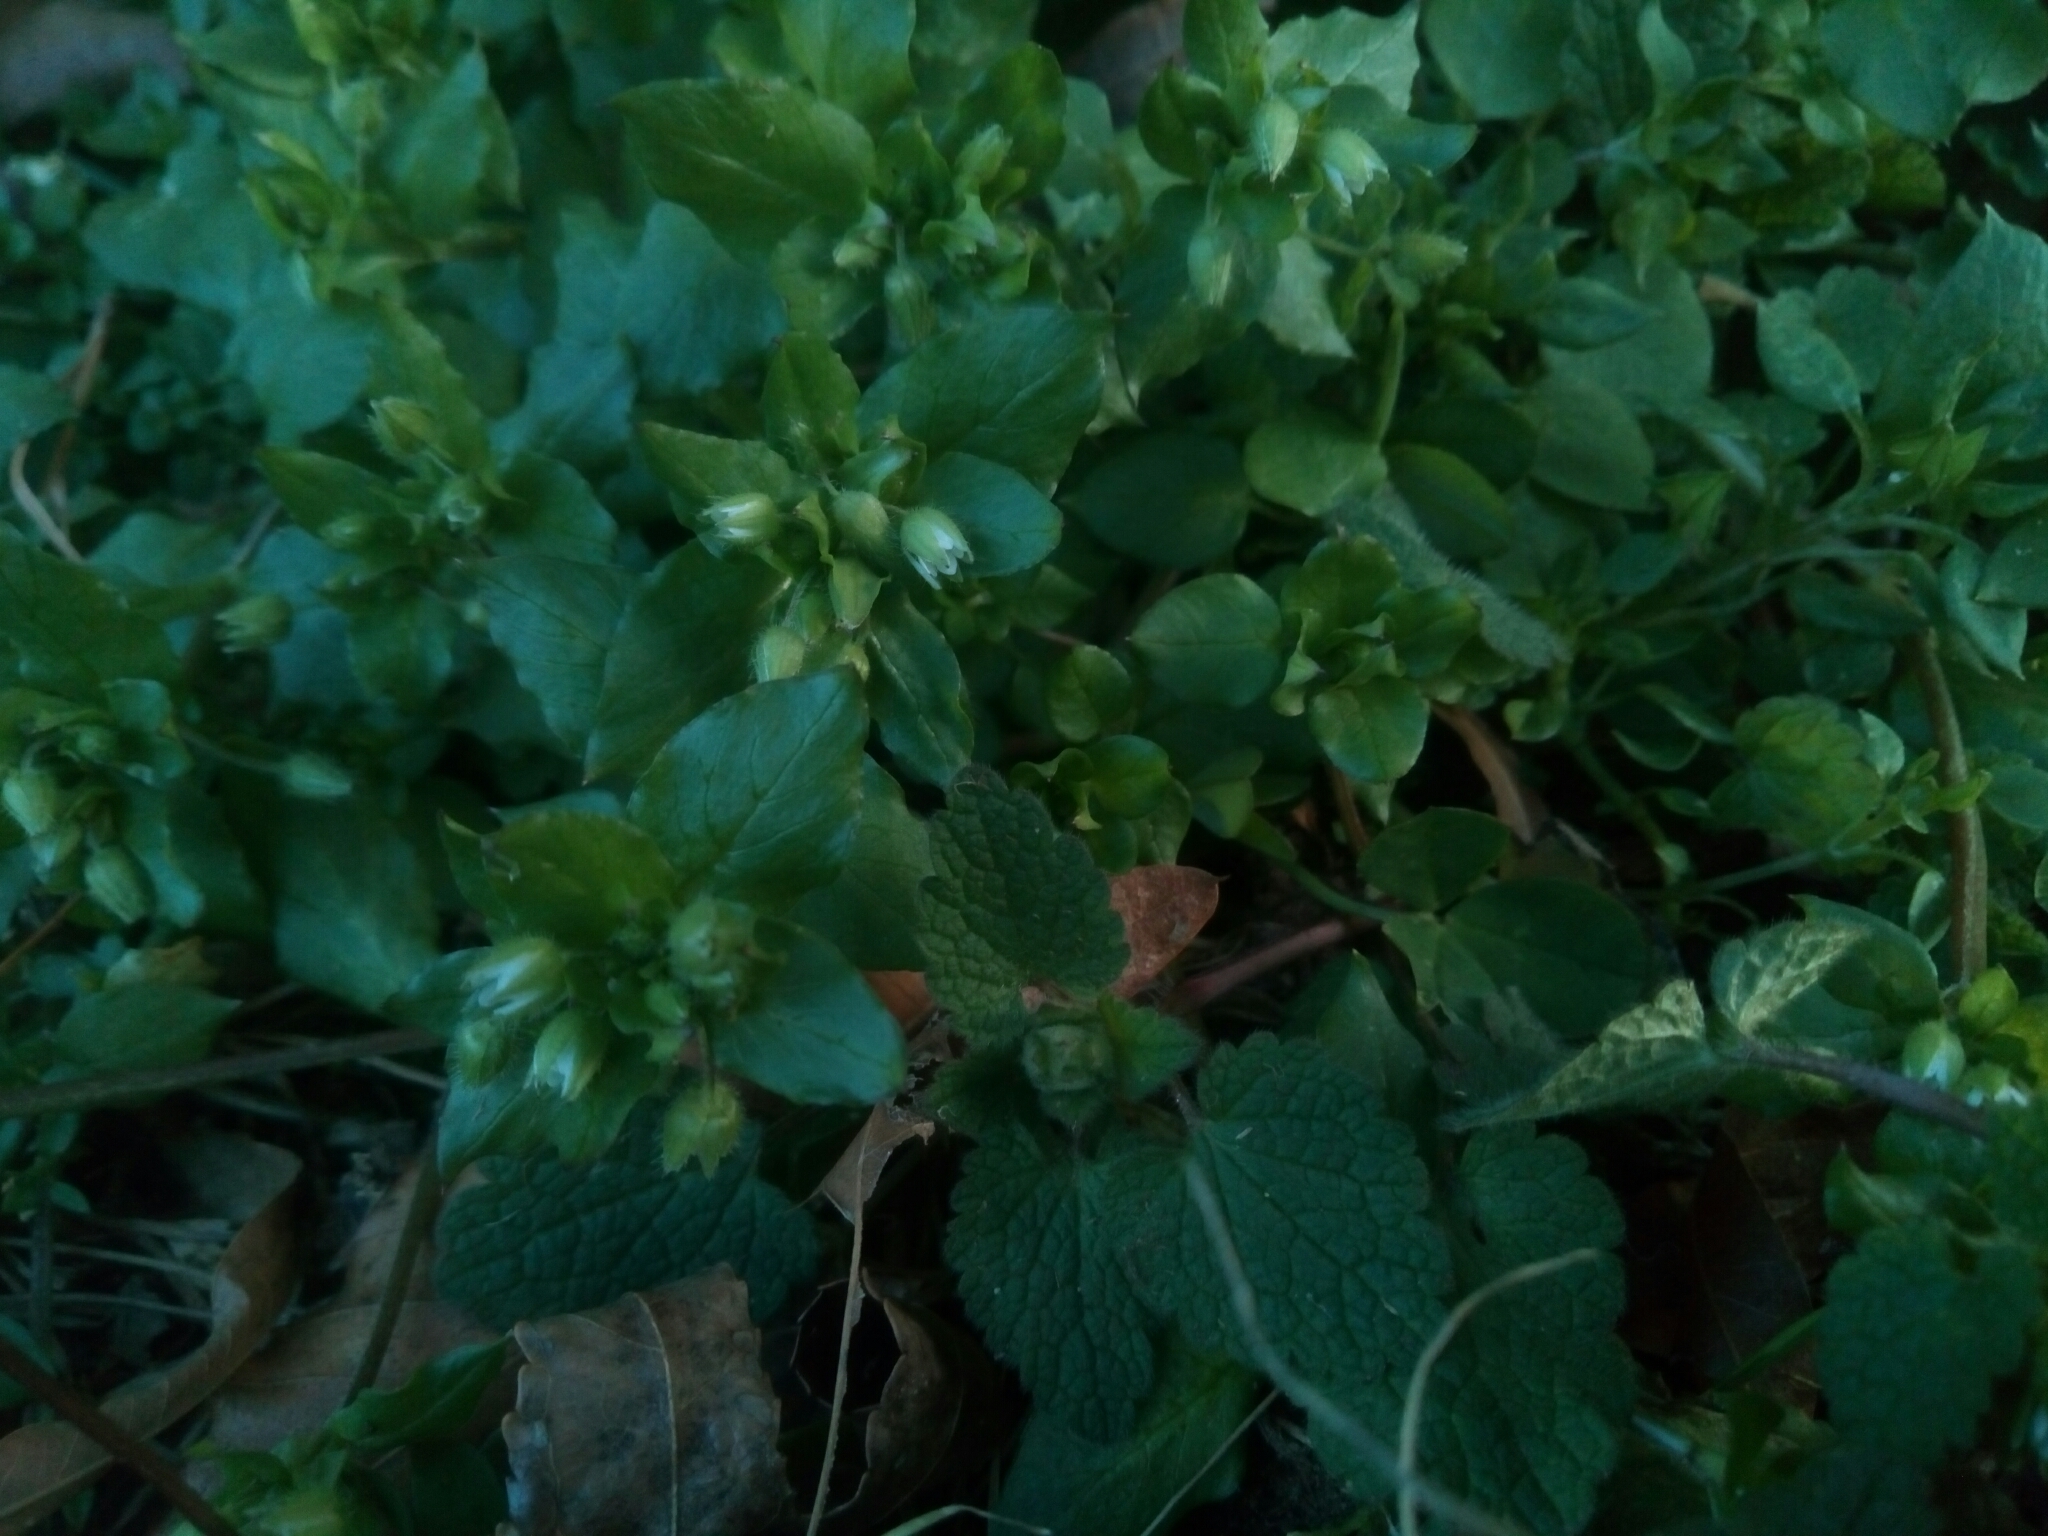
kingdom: Plantae
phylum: Tracheophyta
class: Magnoliopsida
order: Caryophyllales
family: Caryophyllaceae
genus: Stellaria
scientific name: Stellaria media
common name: Common chickweed
